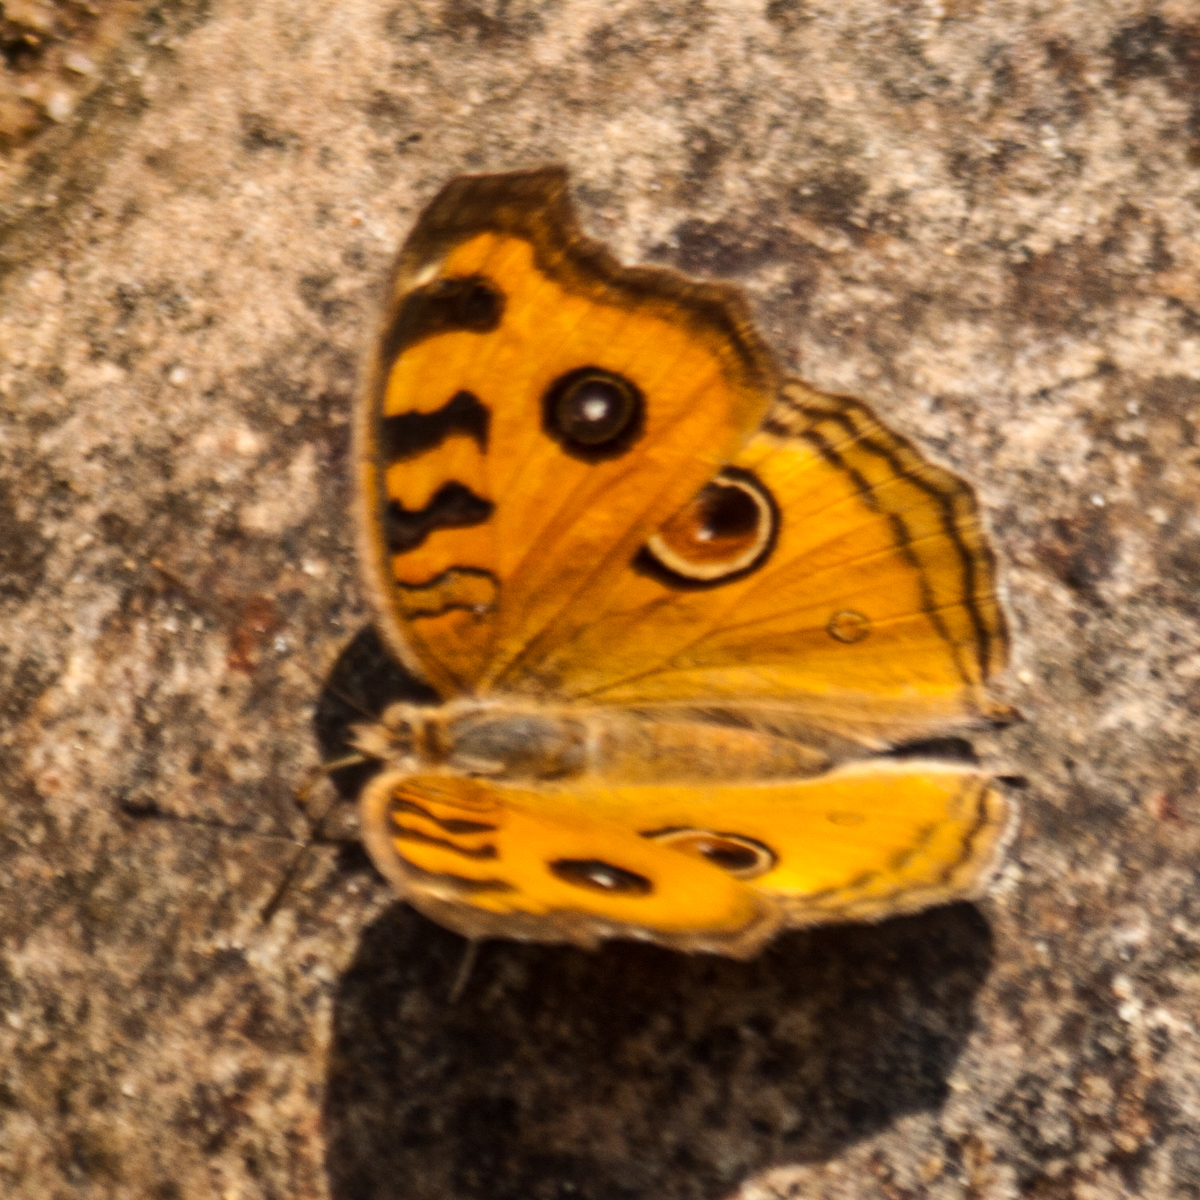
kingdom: Animalia
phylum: Arthropoda
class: Insecta
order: Lepidoptera
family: Nymphalidae
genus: Junonia
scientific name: Junonia almana
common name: Peacock pansy
